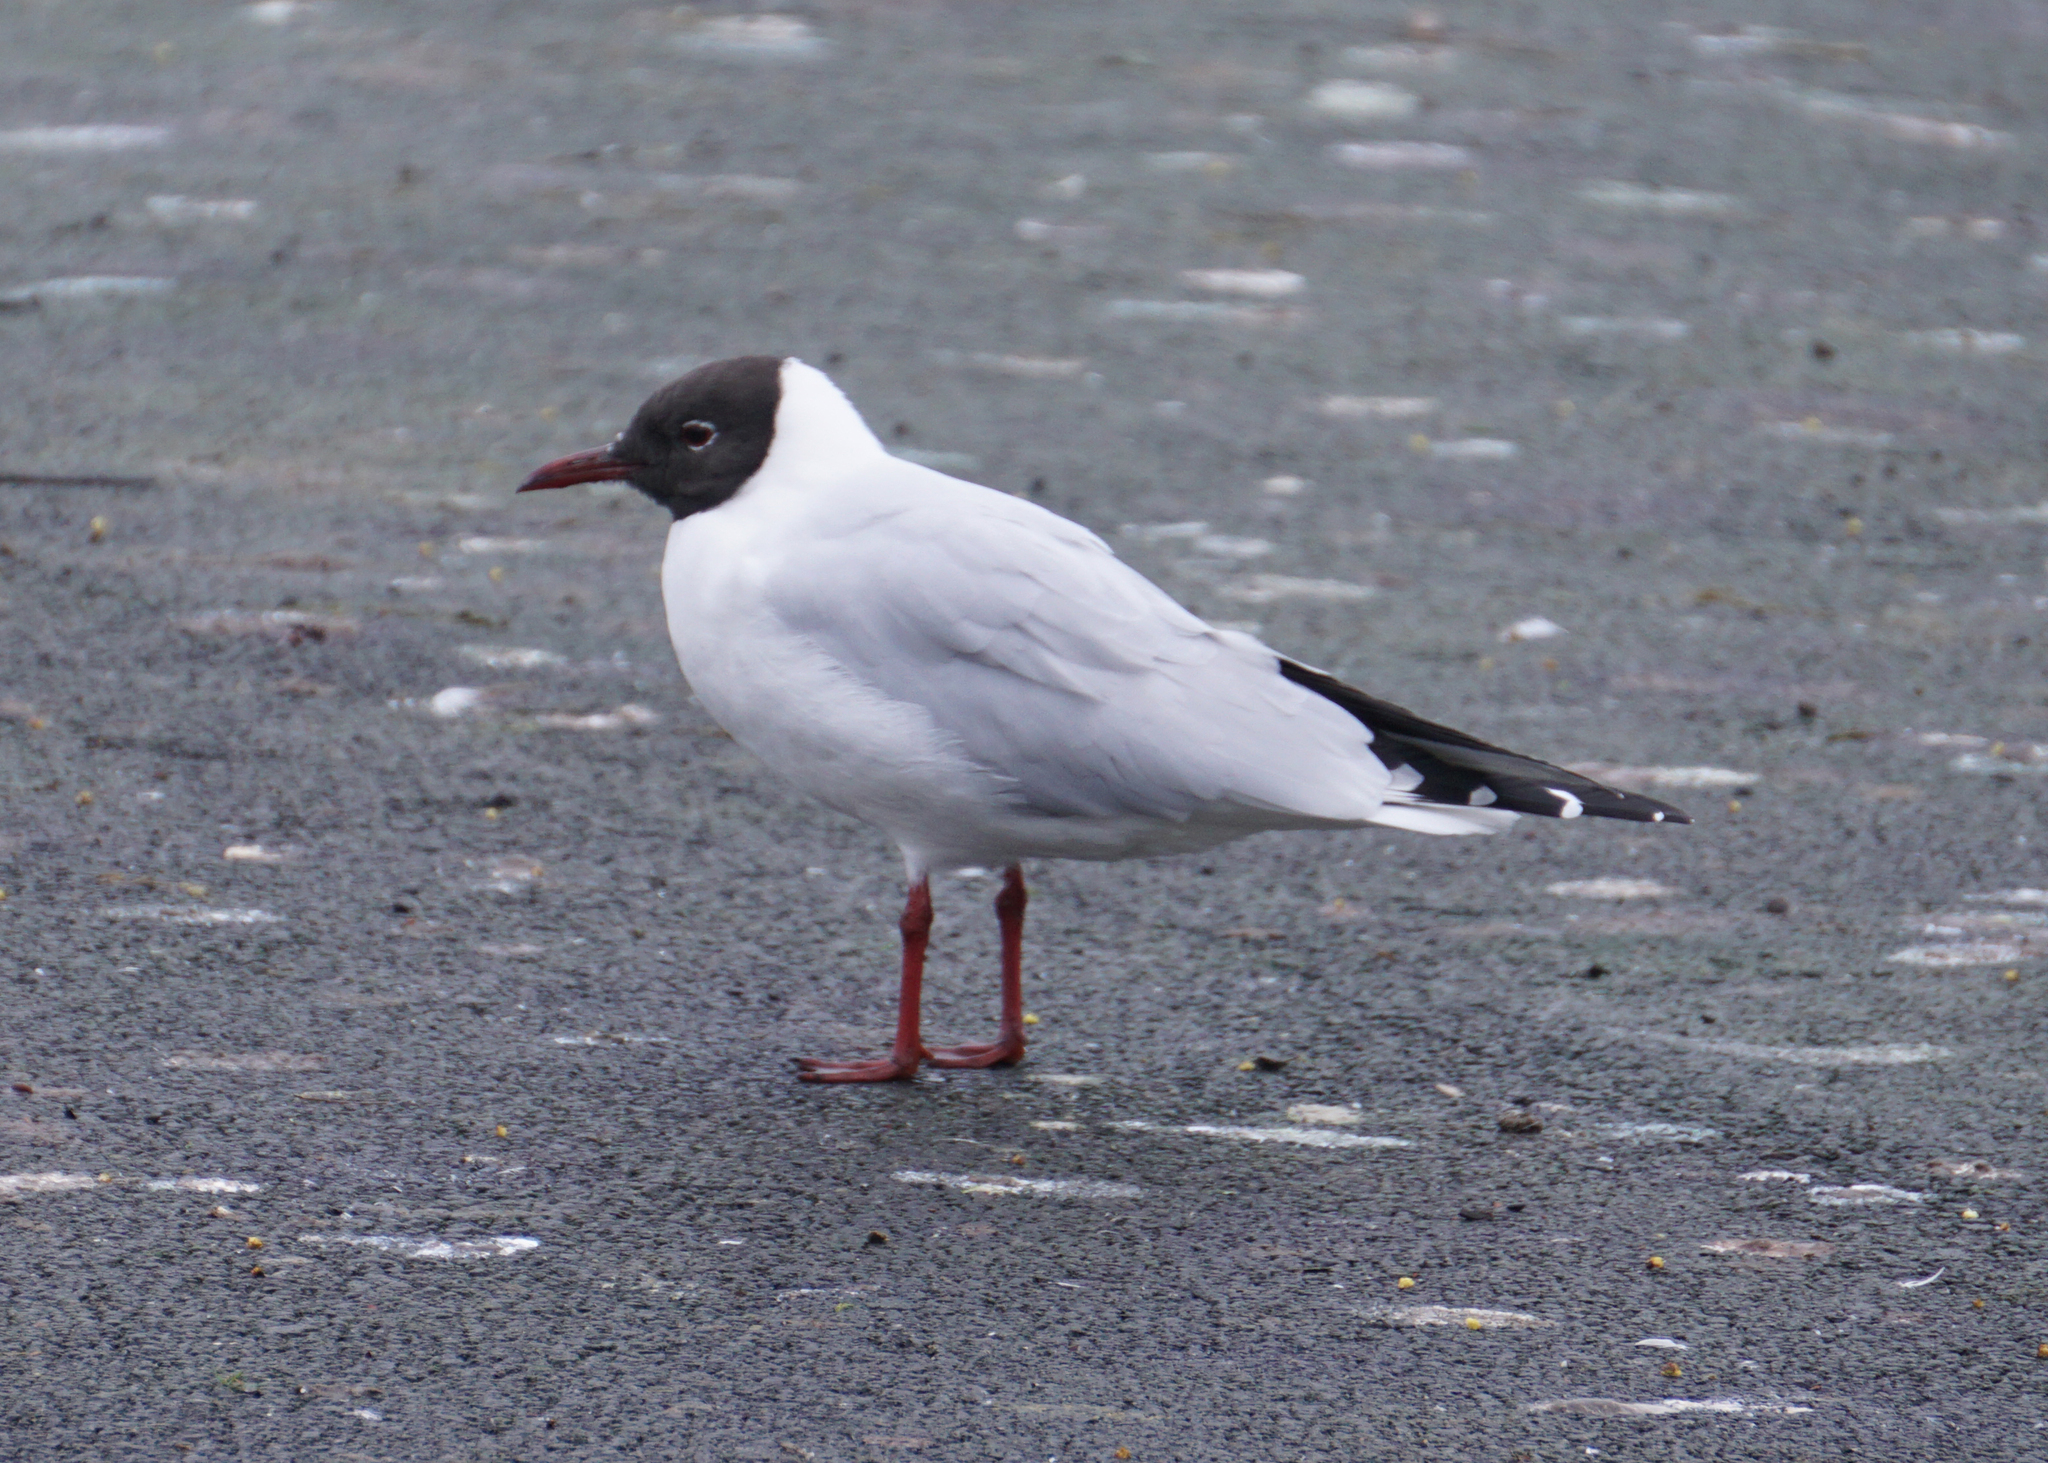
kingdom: Animalia
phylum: Chordata
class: Aves
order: Charadriiformes
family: Laridae
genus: Chroicocephalus
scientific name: Chroicocephalus ridibundus
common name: Black-headed gull
